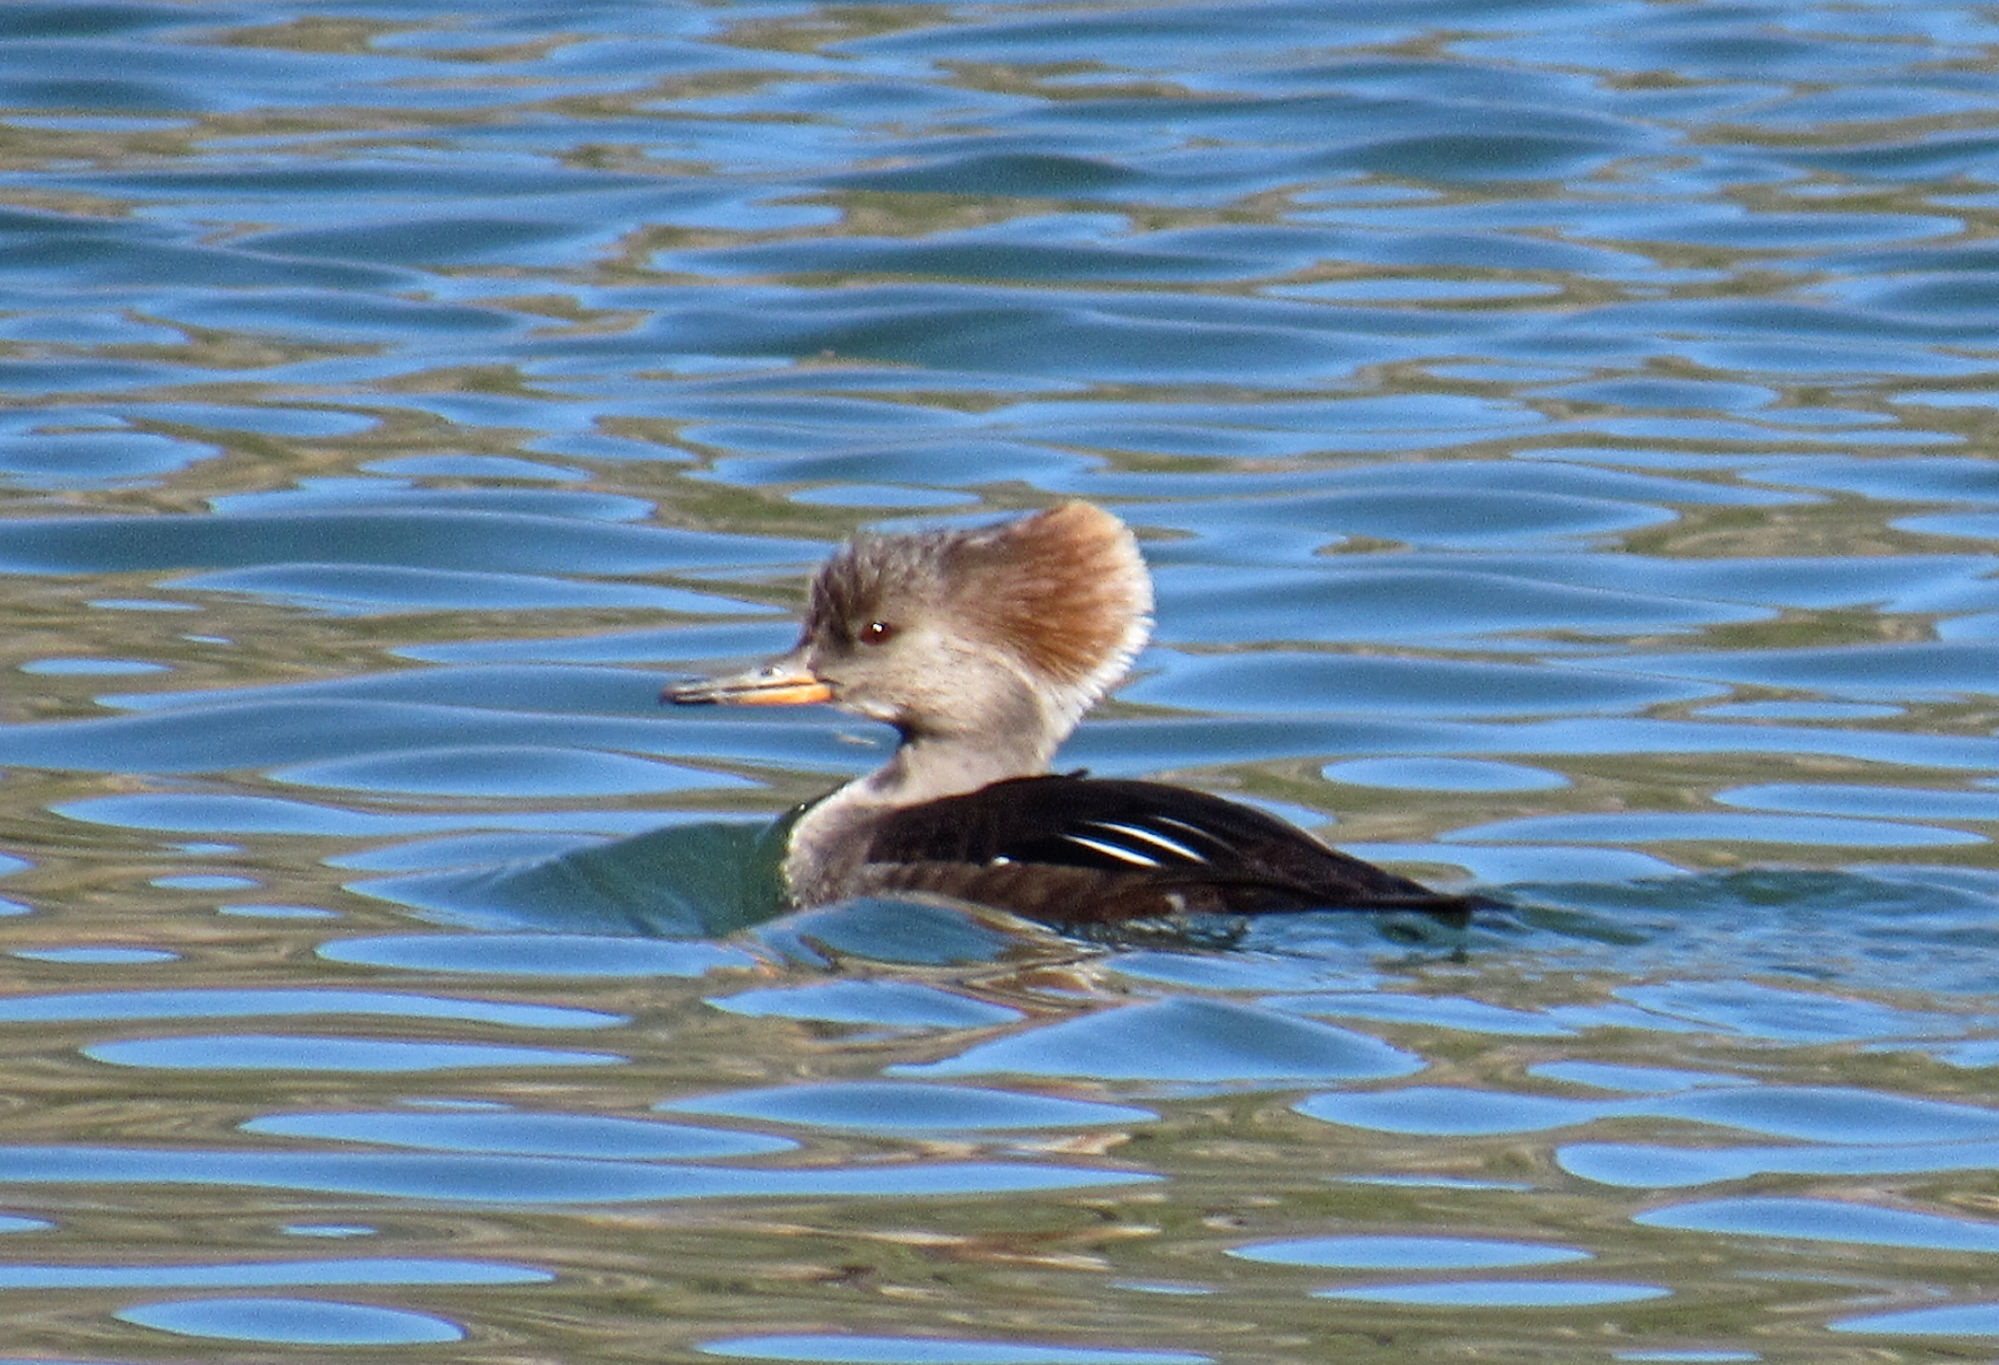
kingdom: Animalia
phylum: Chordata
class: Aves
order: Anseriformes
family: Anatidae
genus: Lophodytes
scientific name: Lophodytes cucullatus
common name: Hooded merganser
